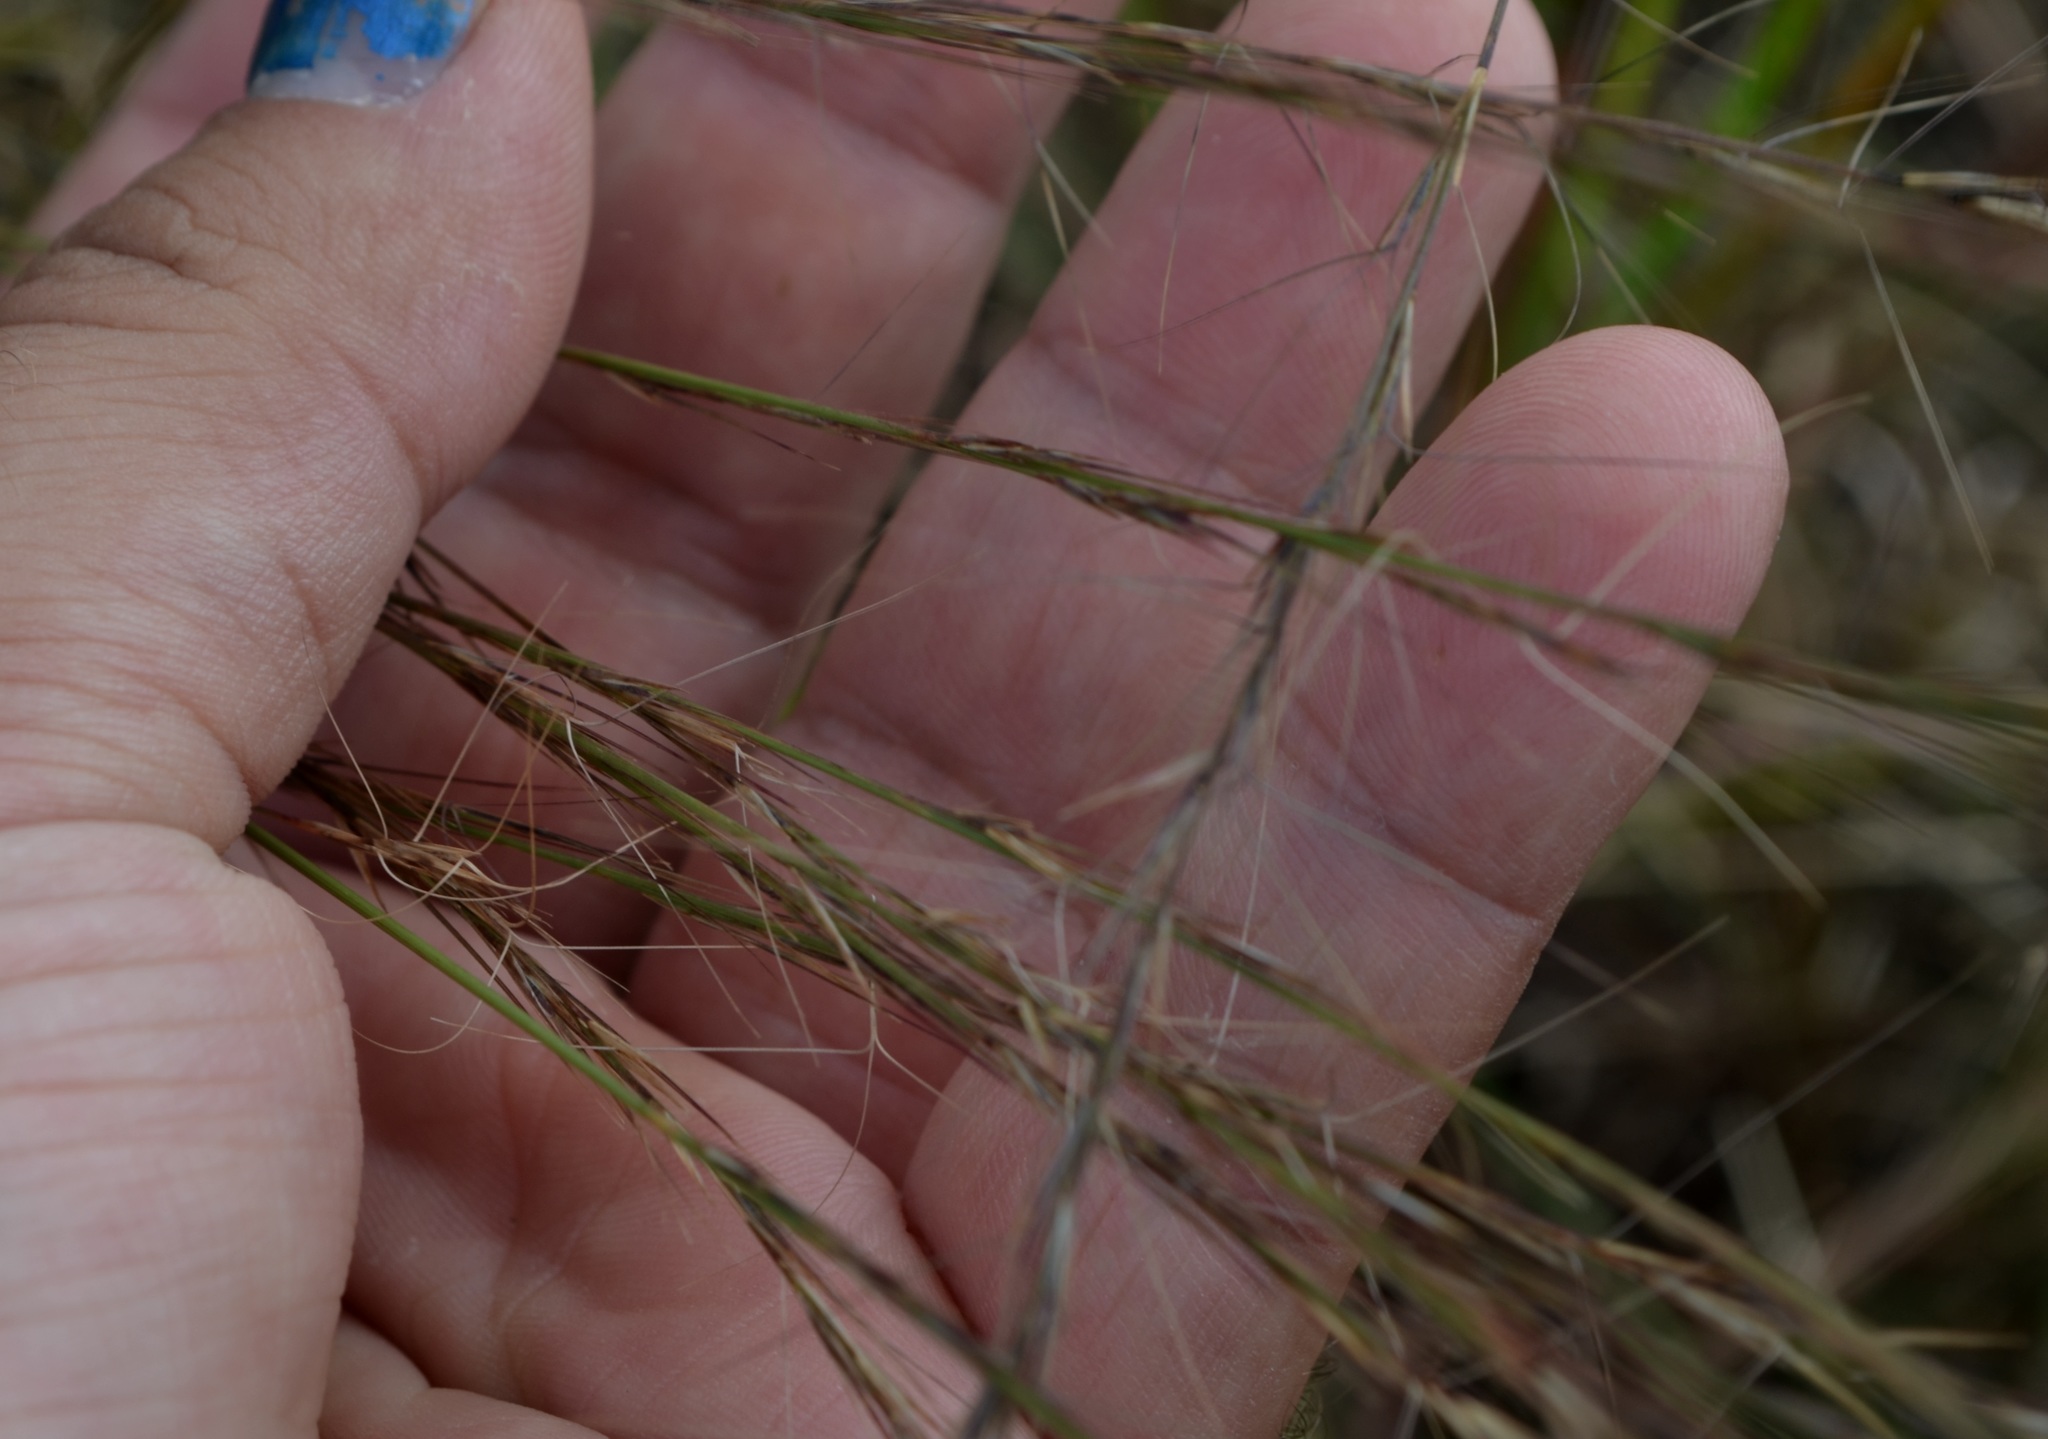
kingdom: Plantae
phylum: Tracheophyta
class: Liliopsida
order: Poales
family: Poaceae
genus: Aristida
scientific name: Aristida purpurascens
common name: Arrow-feather
